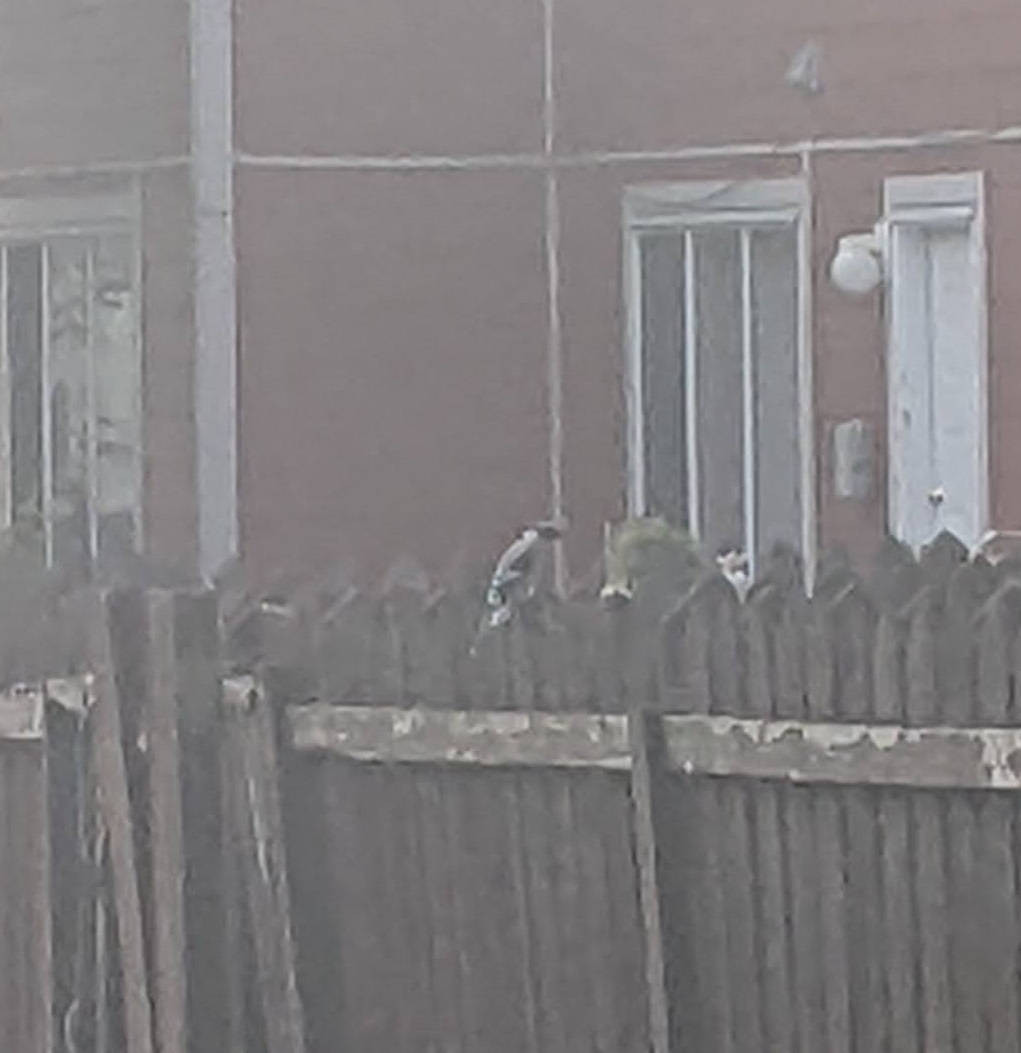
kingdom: Animalia
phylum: Chordata
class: Aves
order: Passeriformes
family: Corvidae
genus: Cyanocitta
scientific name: Cyanocitta cristata
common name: Blue jay
